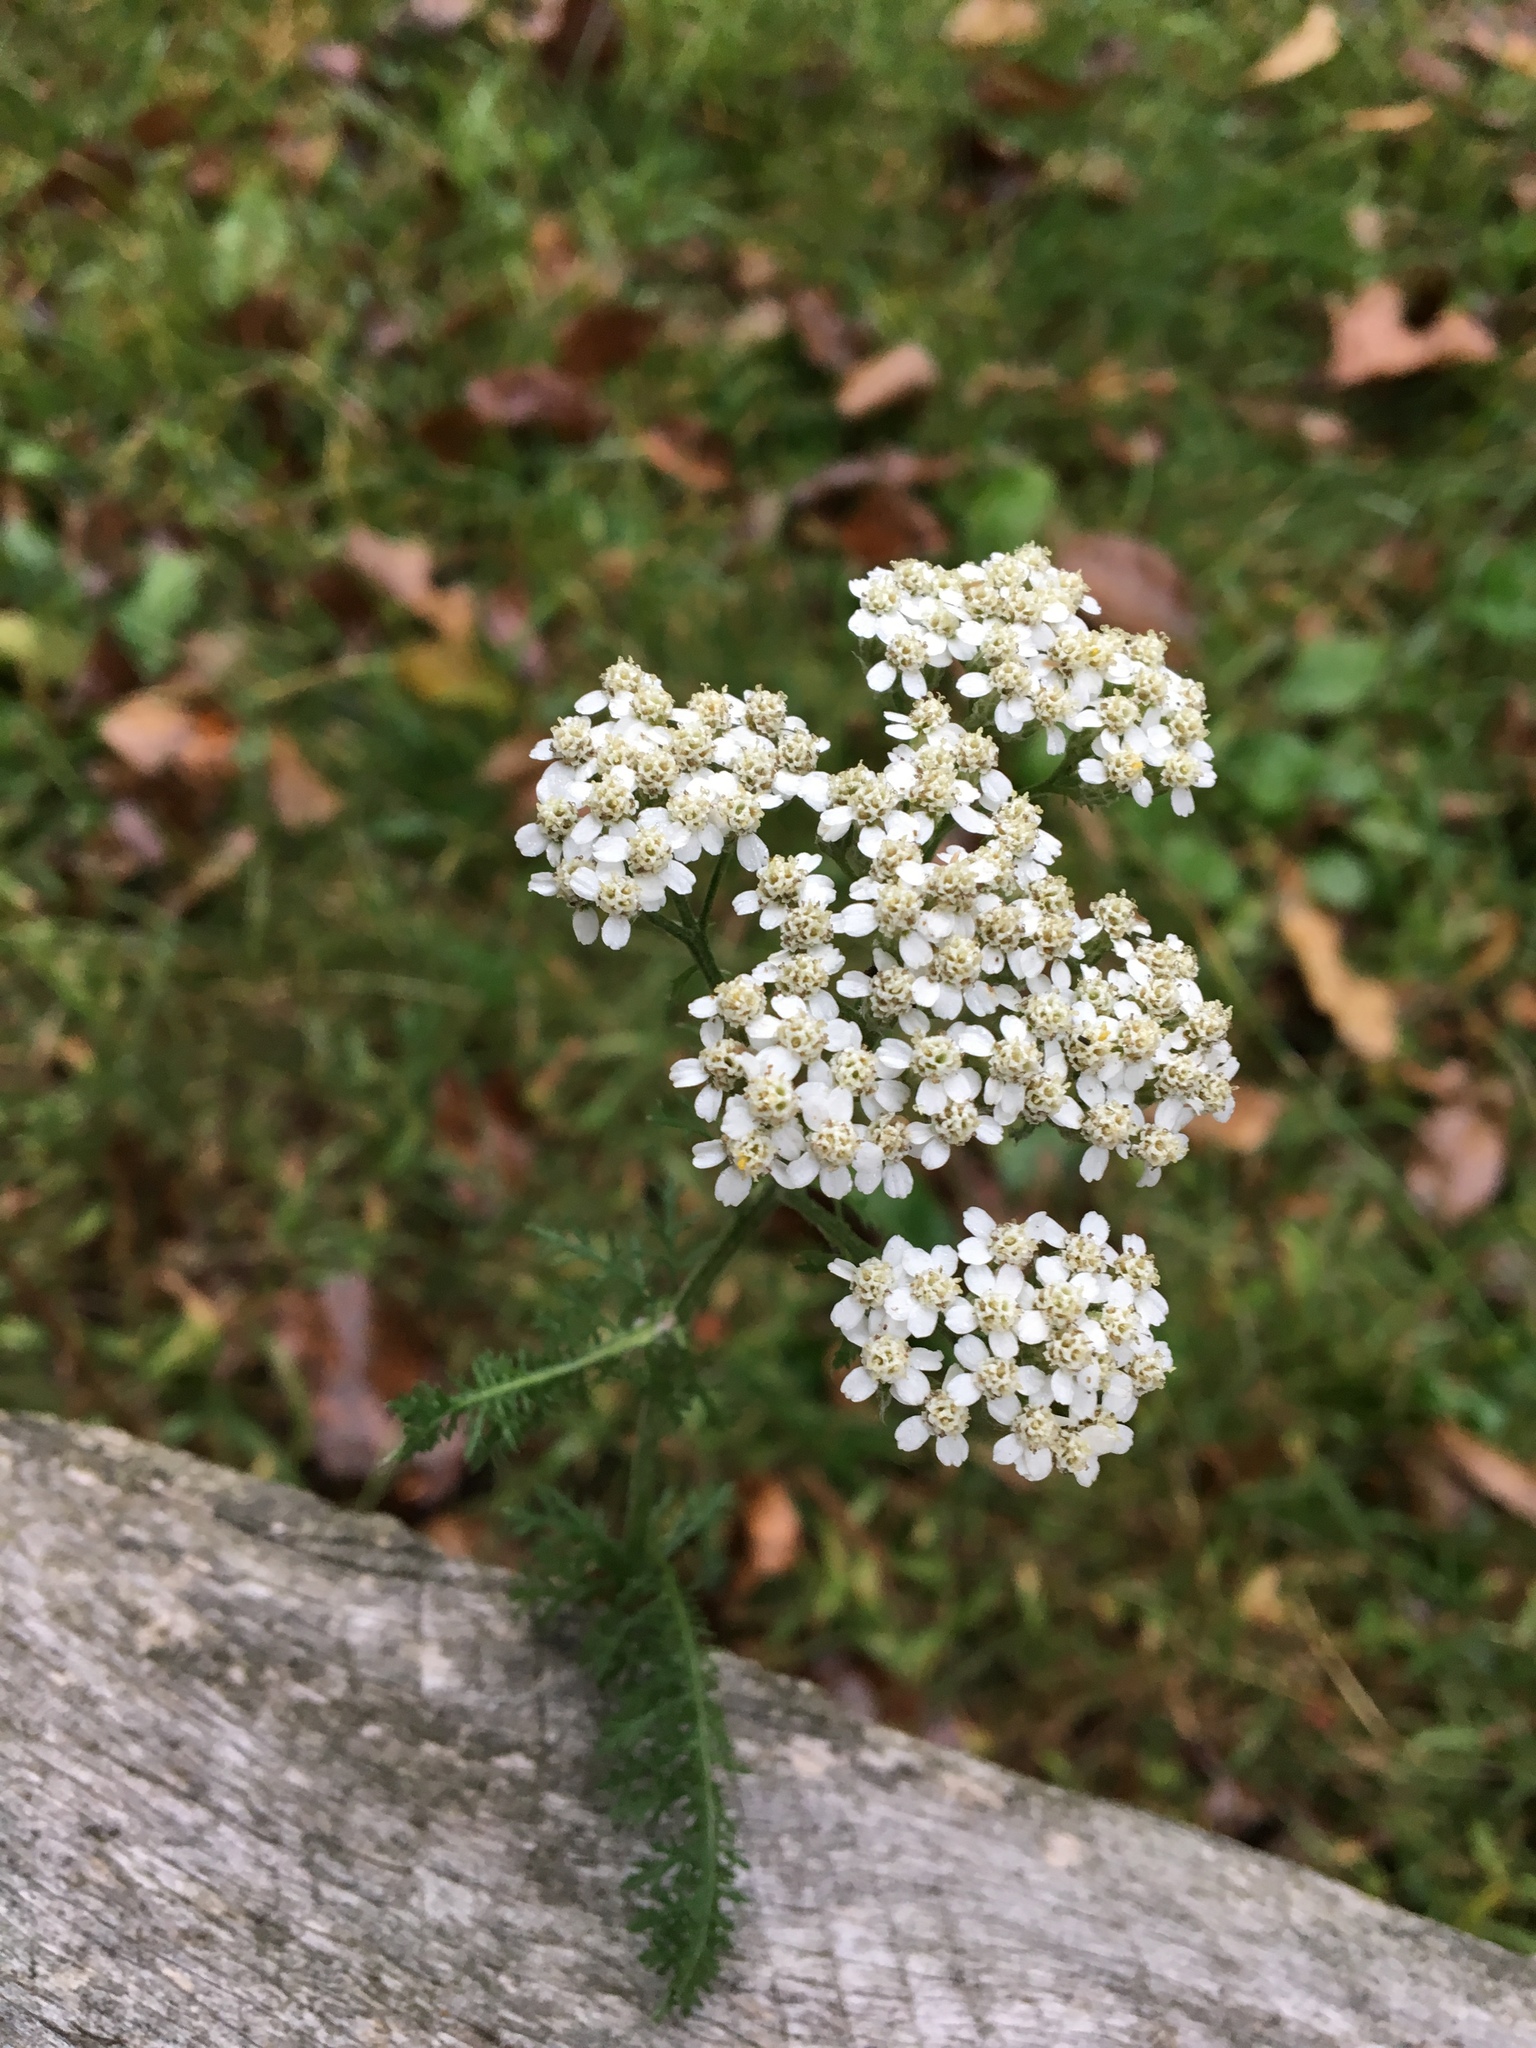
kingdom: Plantae
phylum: Tracheophyta
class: Magnoliopsida
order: Asterales
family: Asteraceae
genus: Achillea
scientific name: Achillea millefolium
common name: Yarrow
